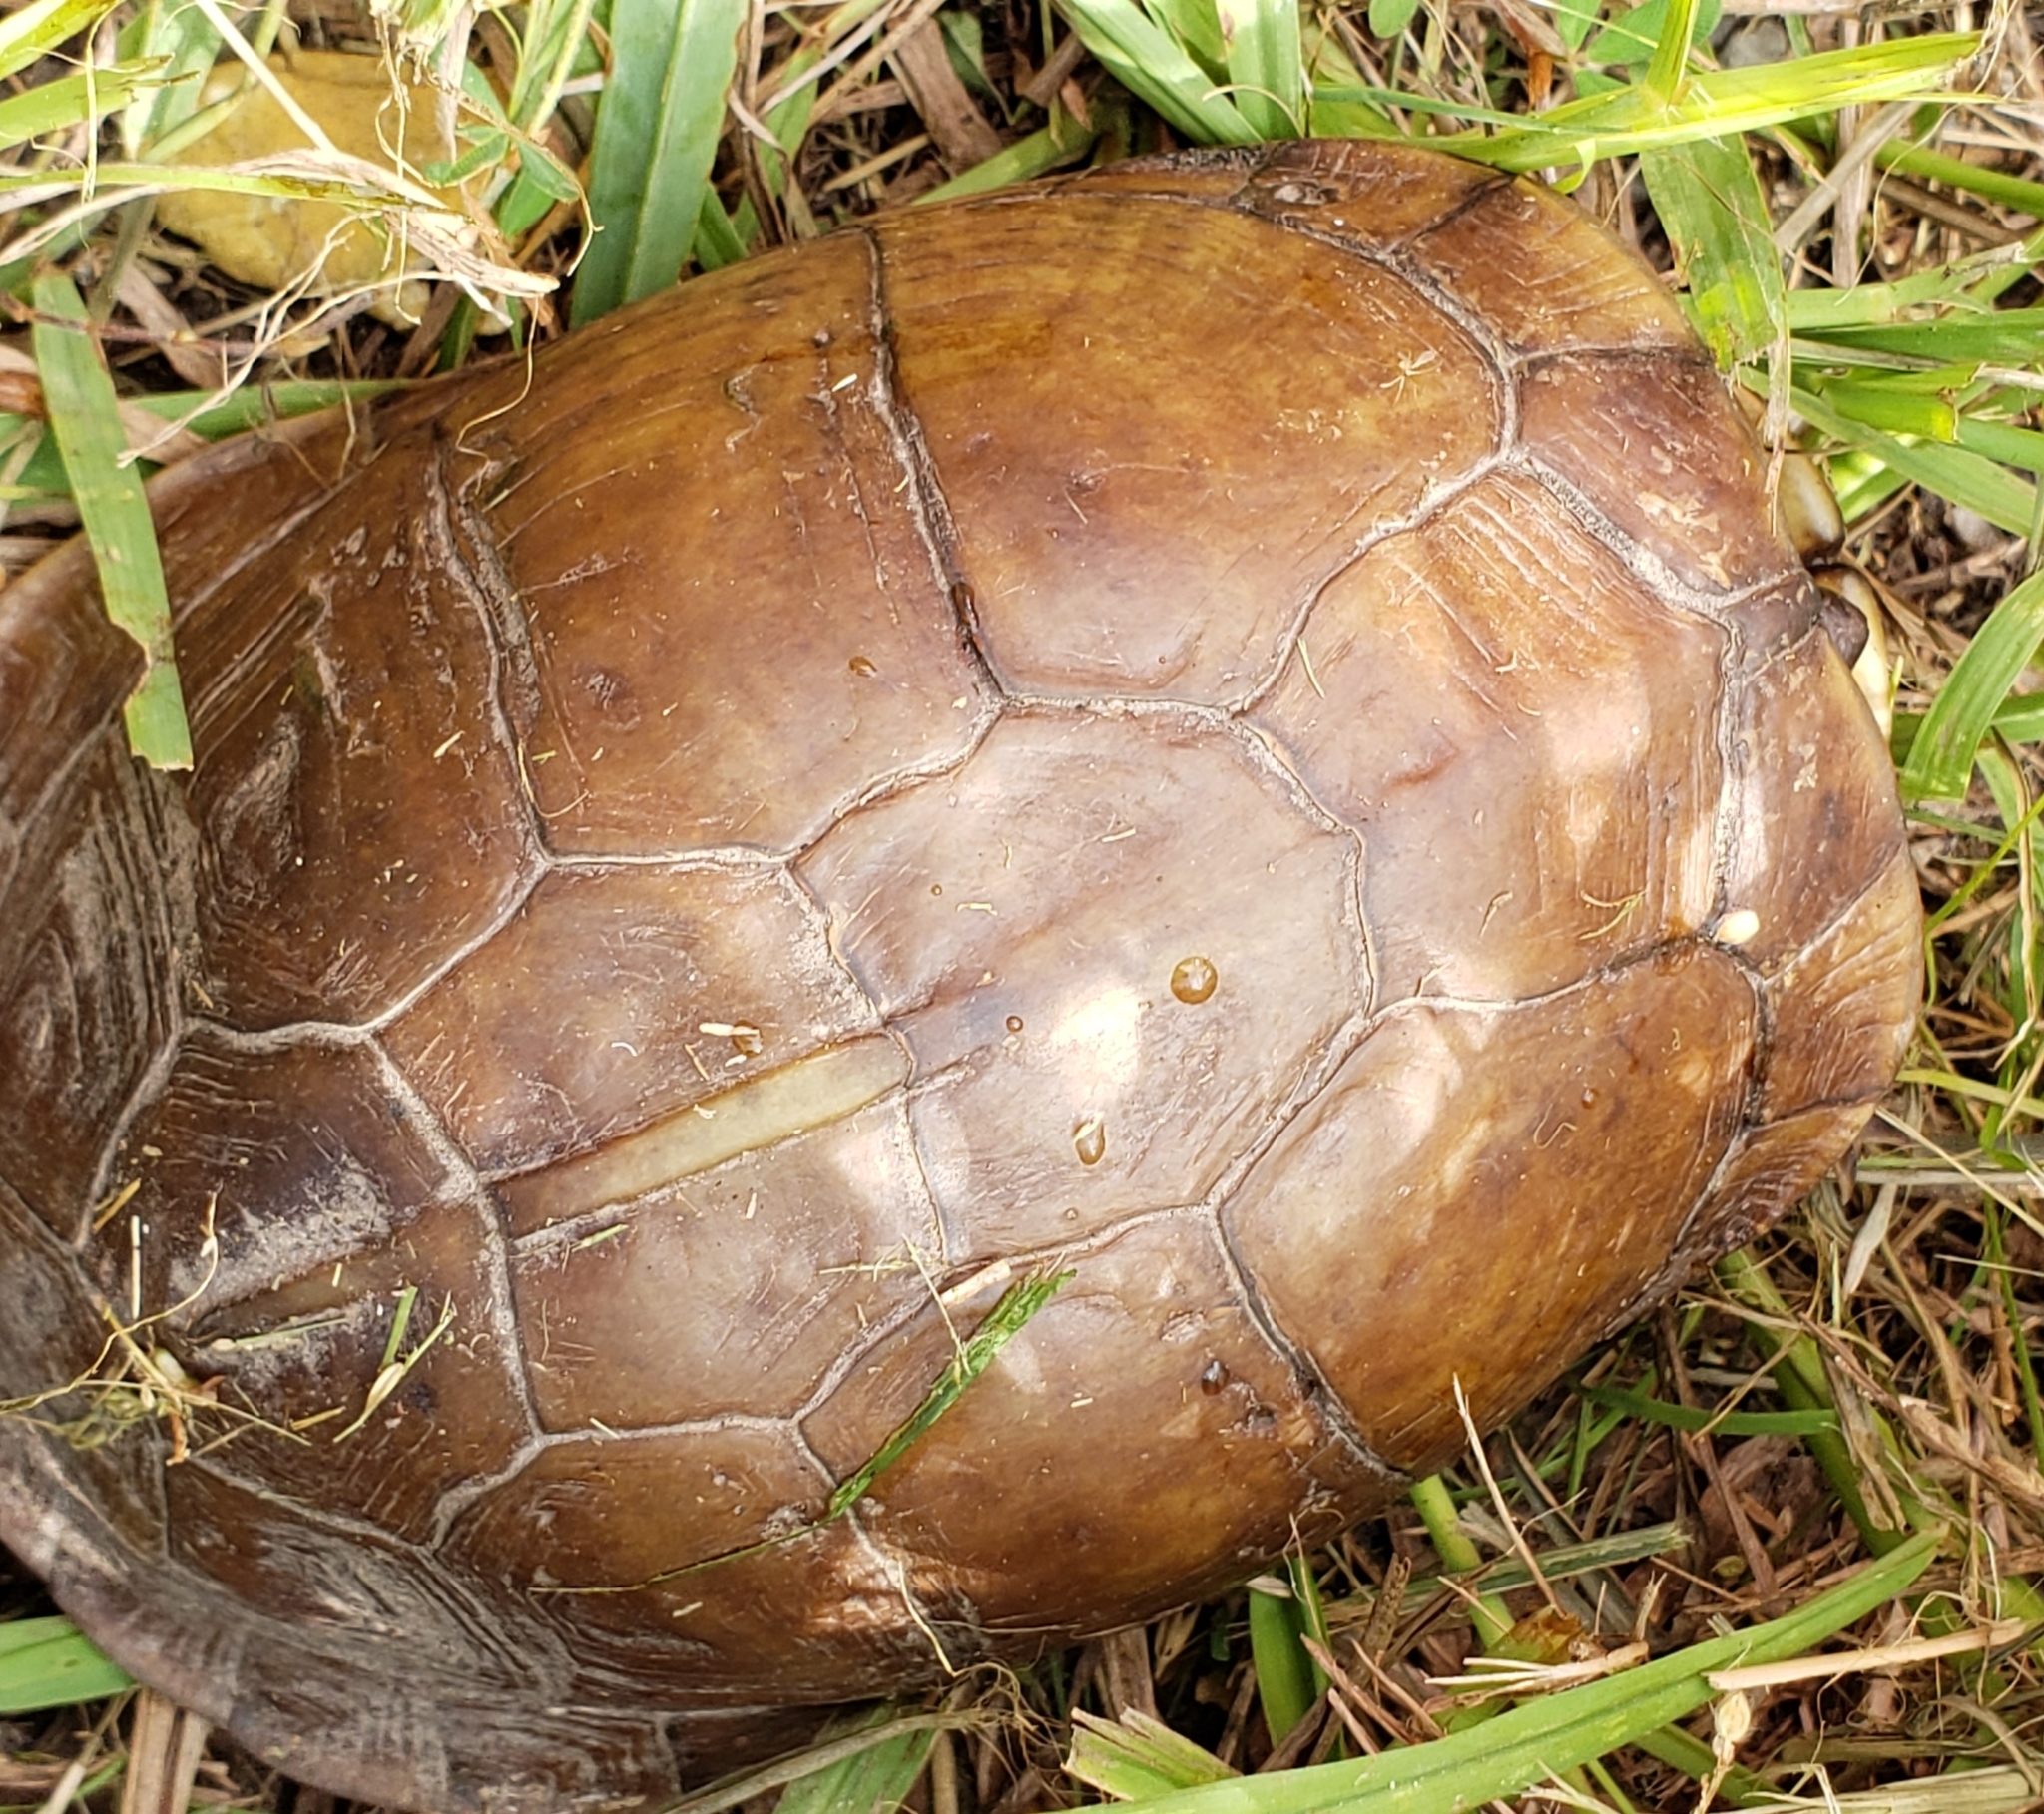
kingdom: Animalia
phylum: Chordata
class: Testudines
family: Emydidae
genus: Terrapene
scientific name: Terrapene carolina
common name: Common box turtle
